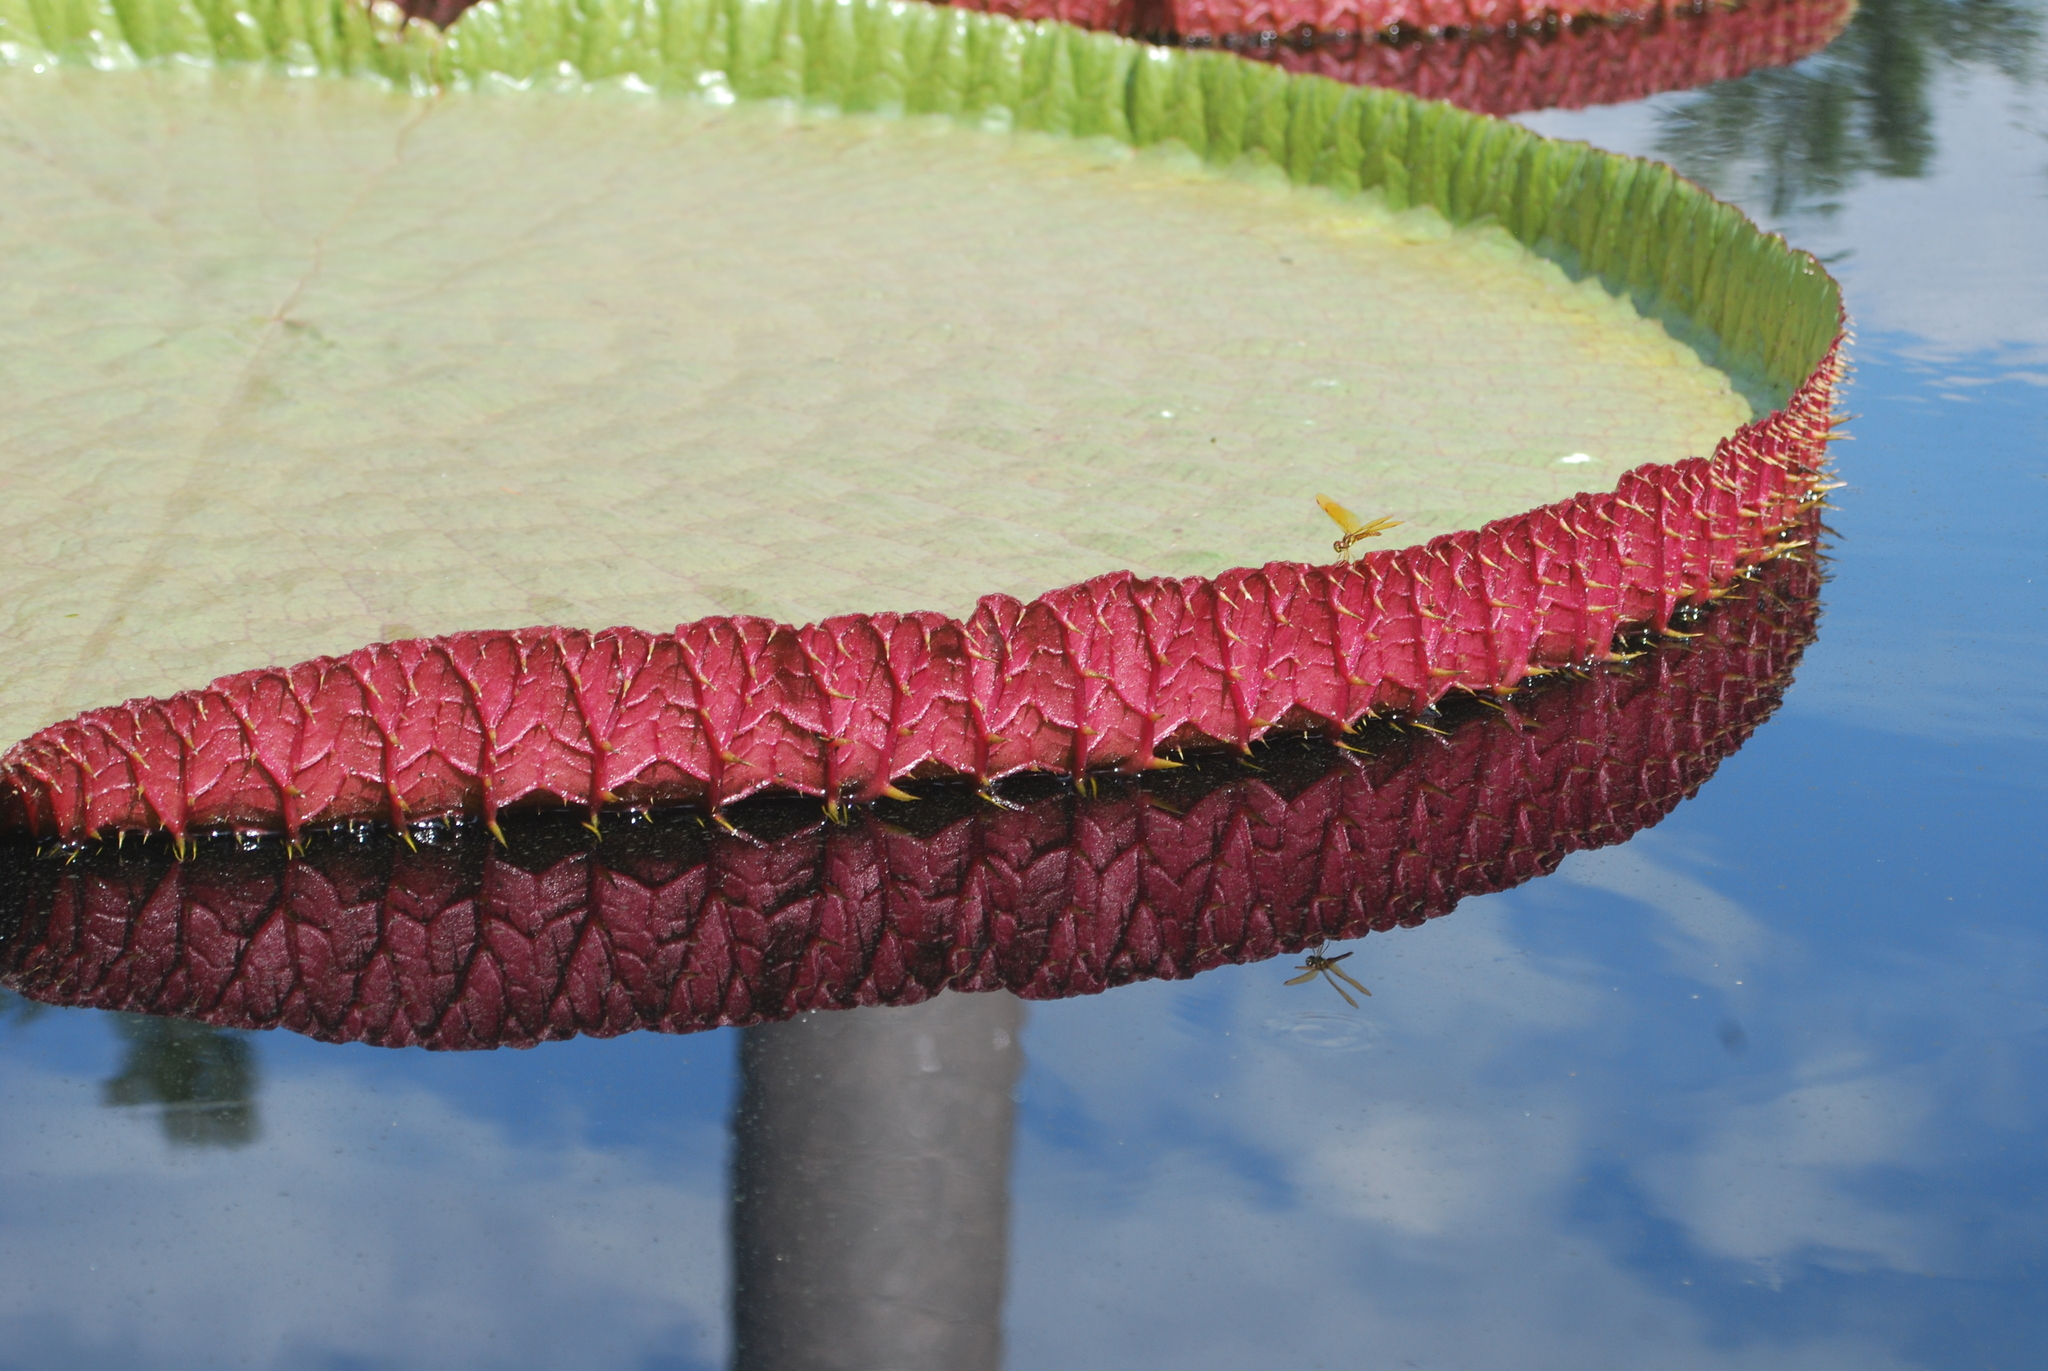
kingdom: Animalia
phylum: Arthropoda
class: Insecta
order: Odonata
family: Libellulidae
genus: Perithemis
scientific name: Perithemis tenera
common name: Eastern amberwing
